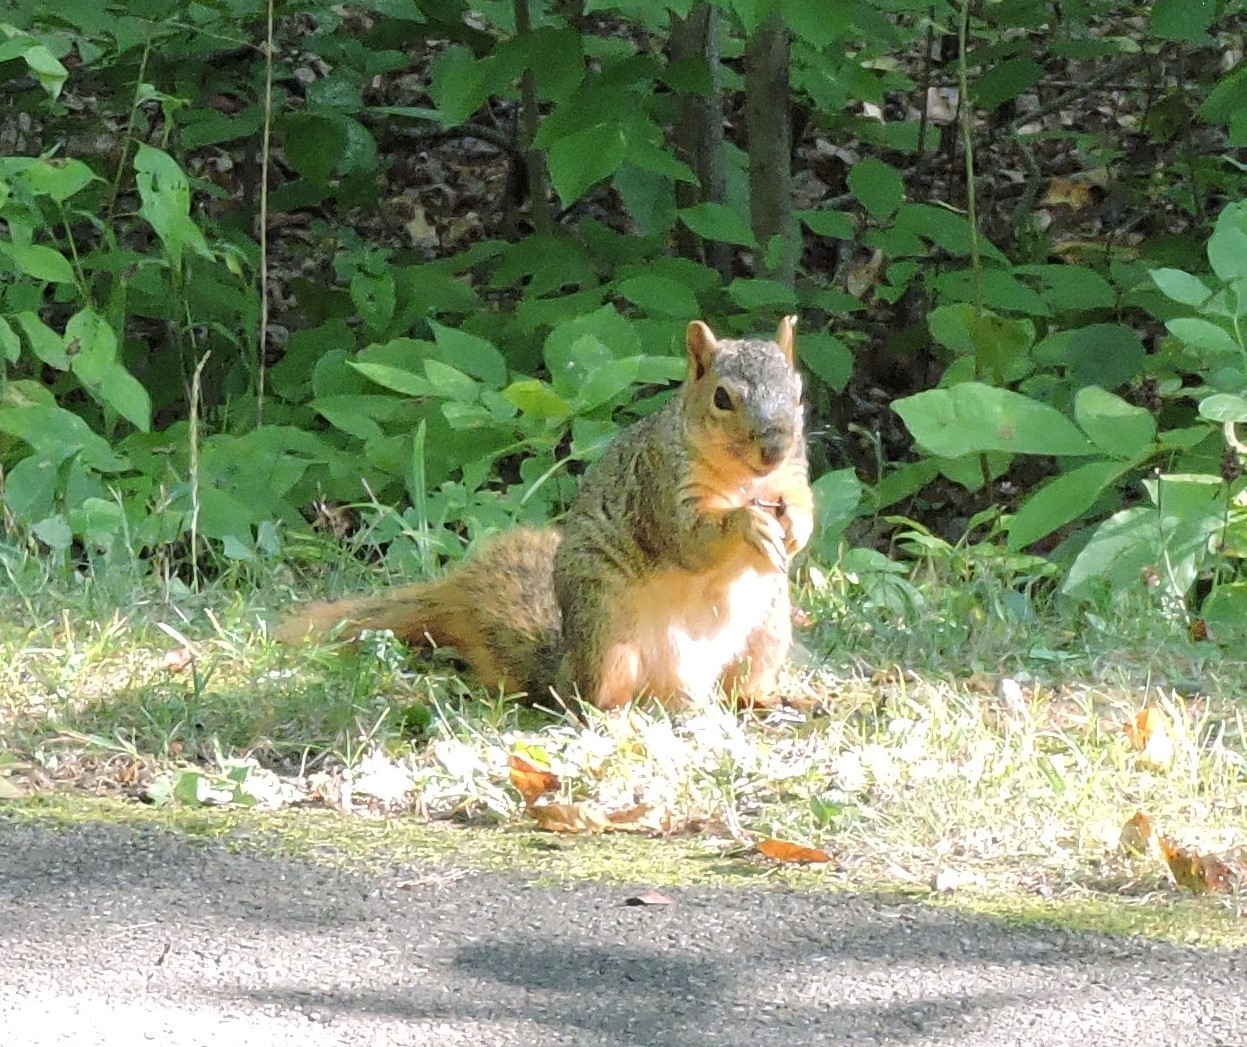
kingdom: Animalia
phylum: Chordata
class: Mammalia
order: Rodentia
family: Sciuridae
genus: Sciurus
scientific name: Sciurus niger
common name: Fox squirrel
